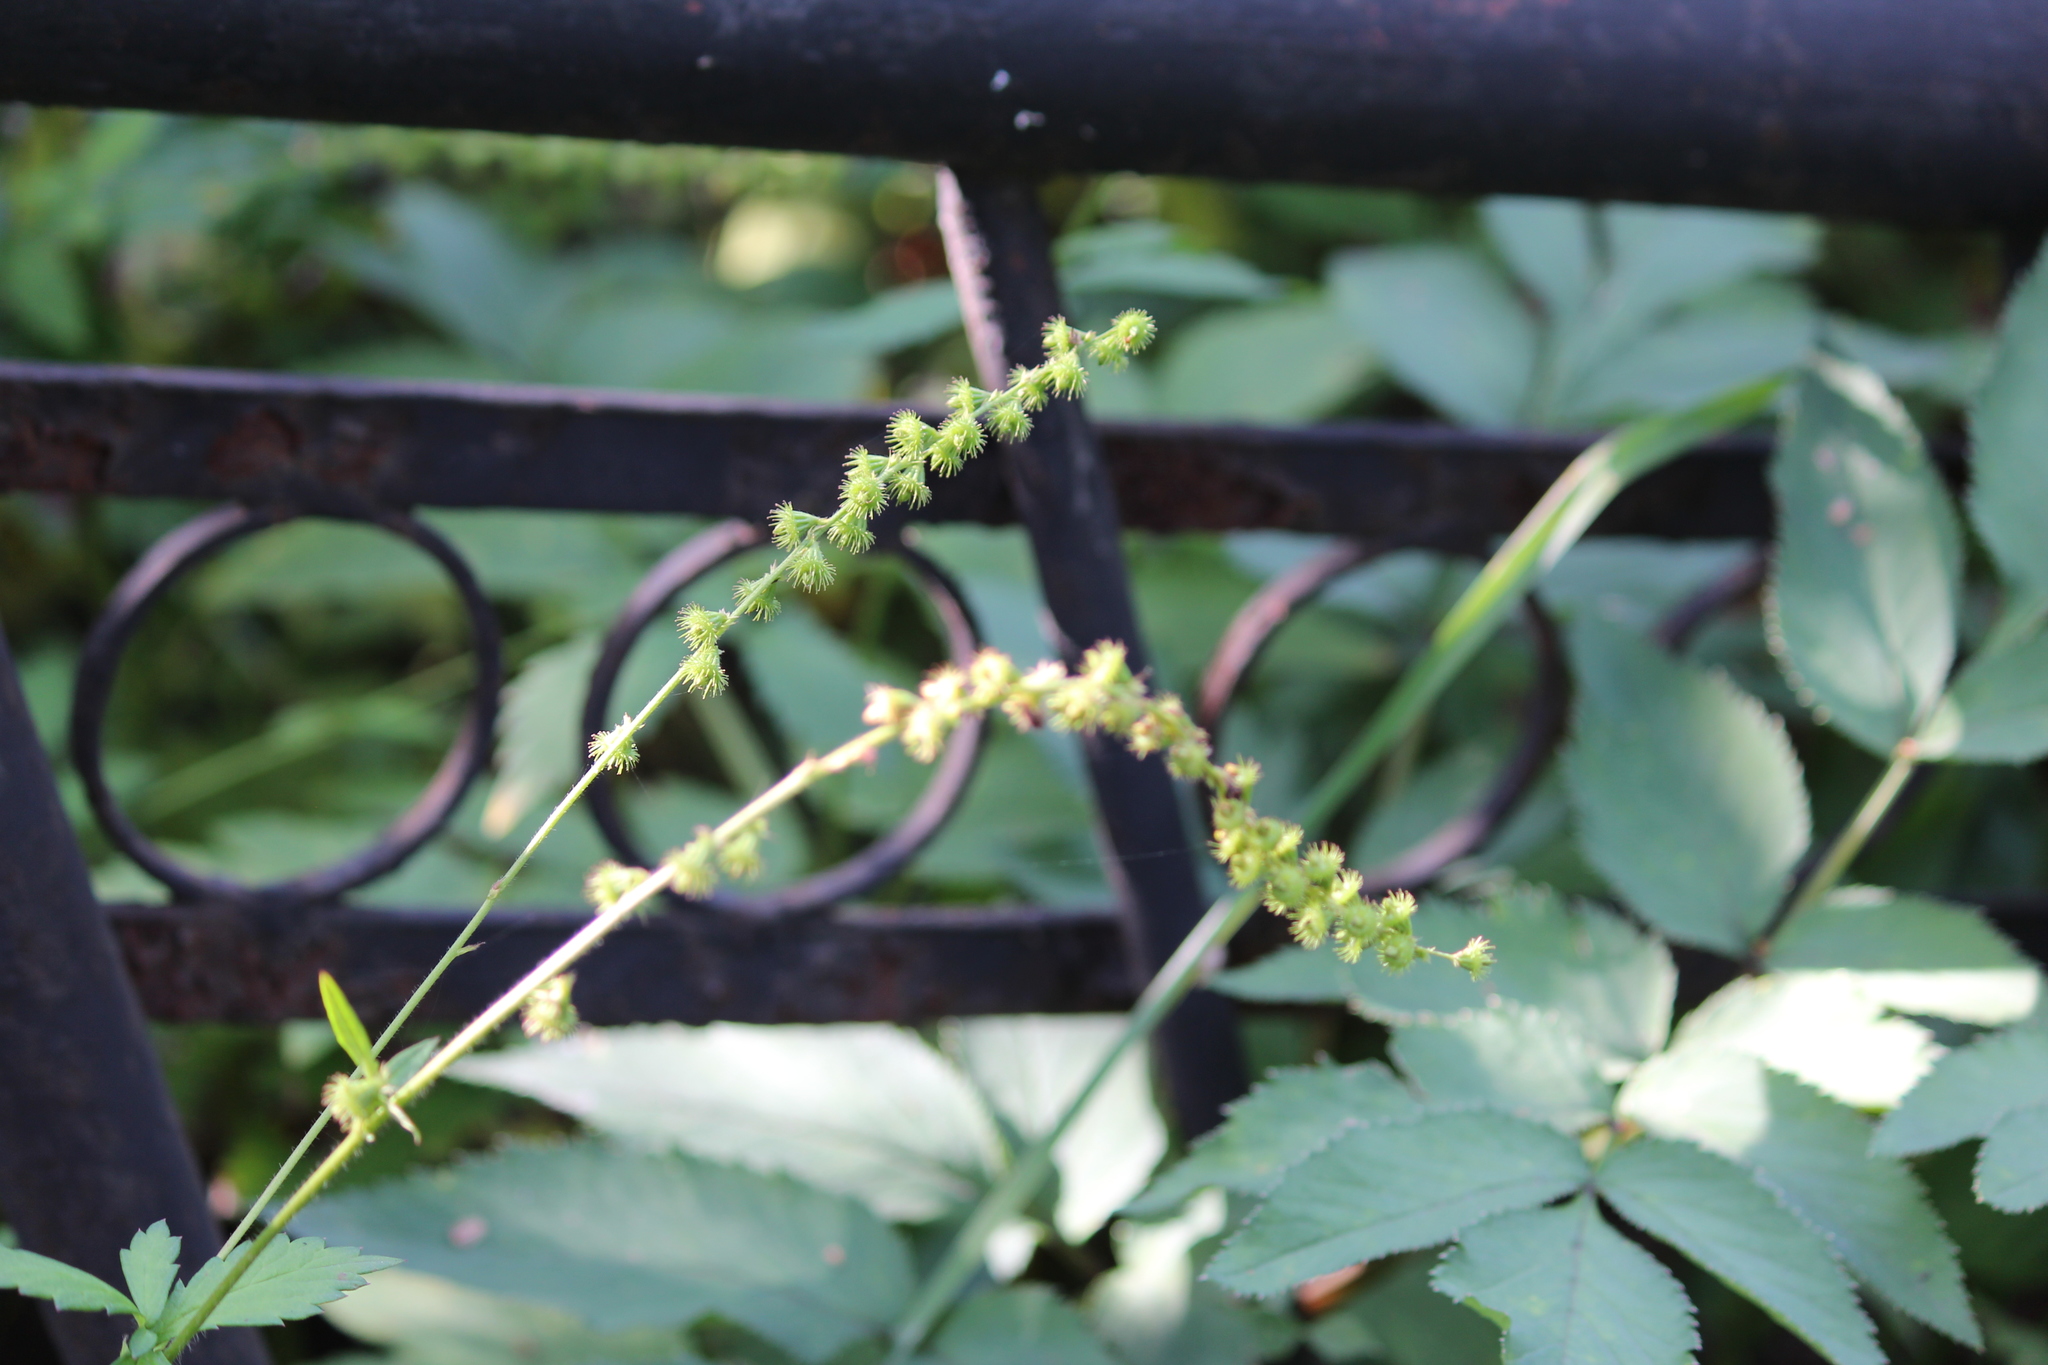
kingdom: Plantae
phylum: Tracheophyta
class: Magnoliopsida
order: Rosales
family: Rosaceae
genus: Agrimonia
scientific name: Agrimonia pilosa
